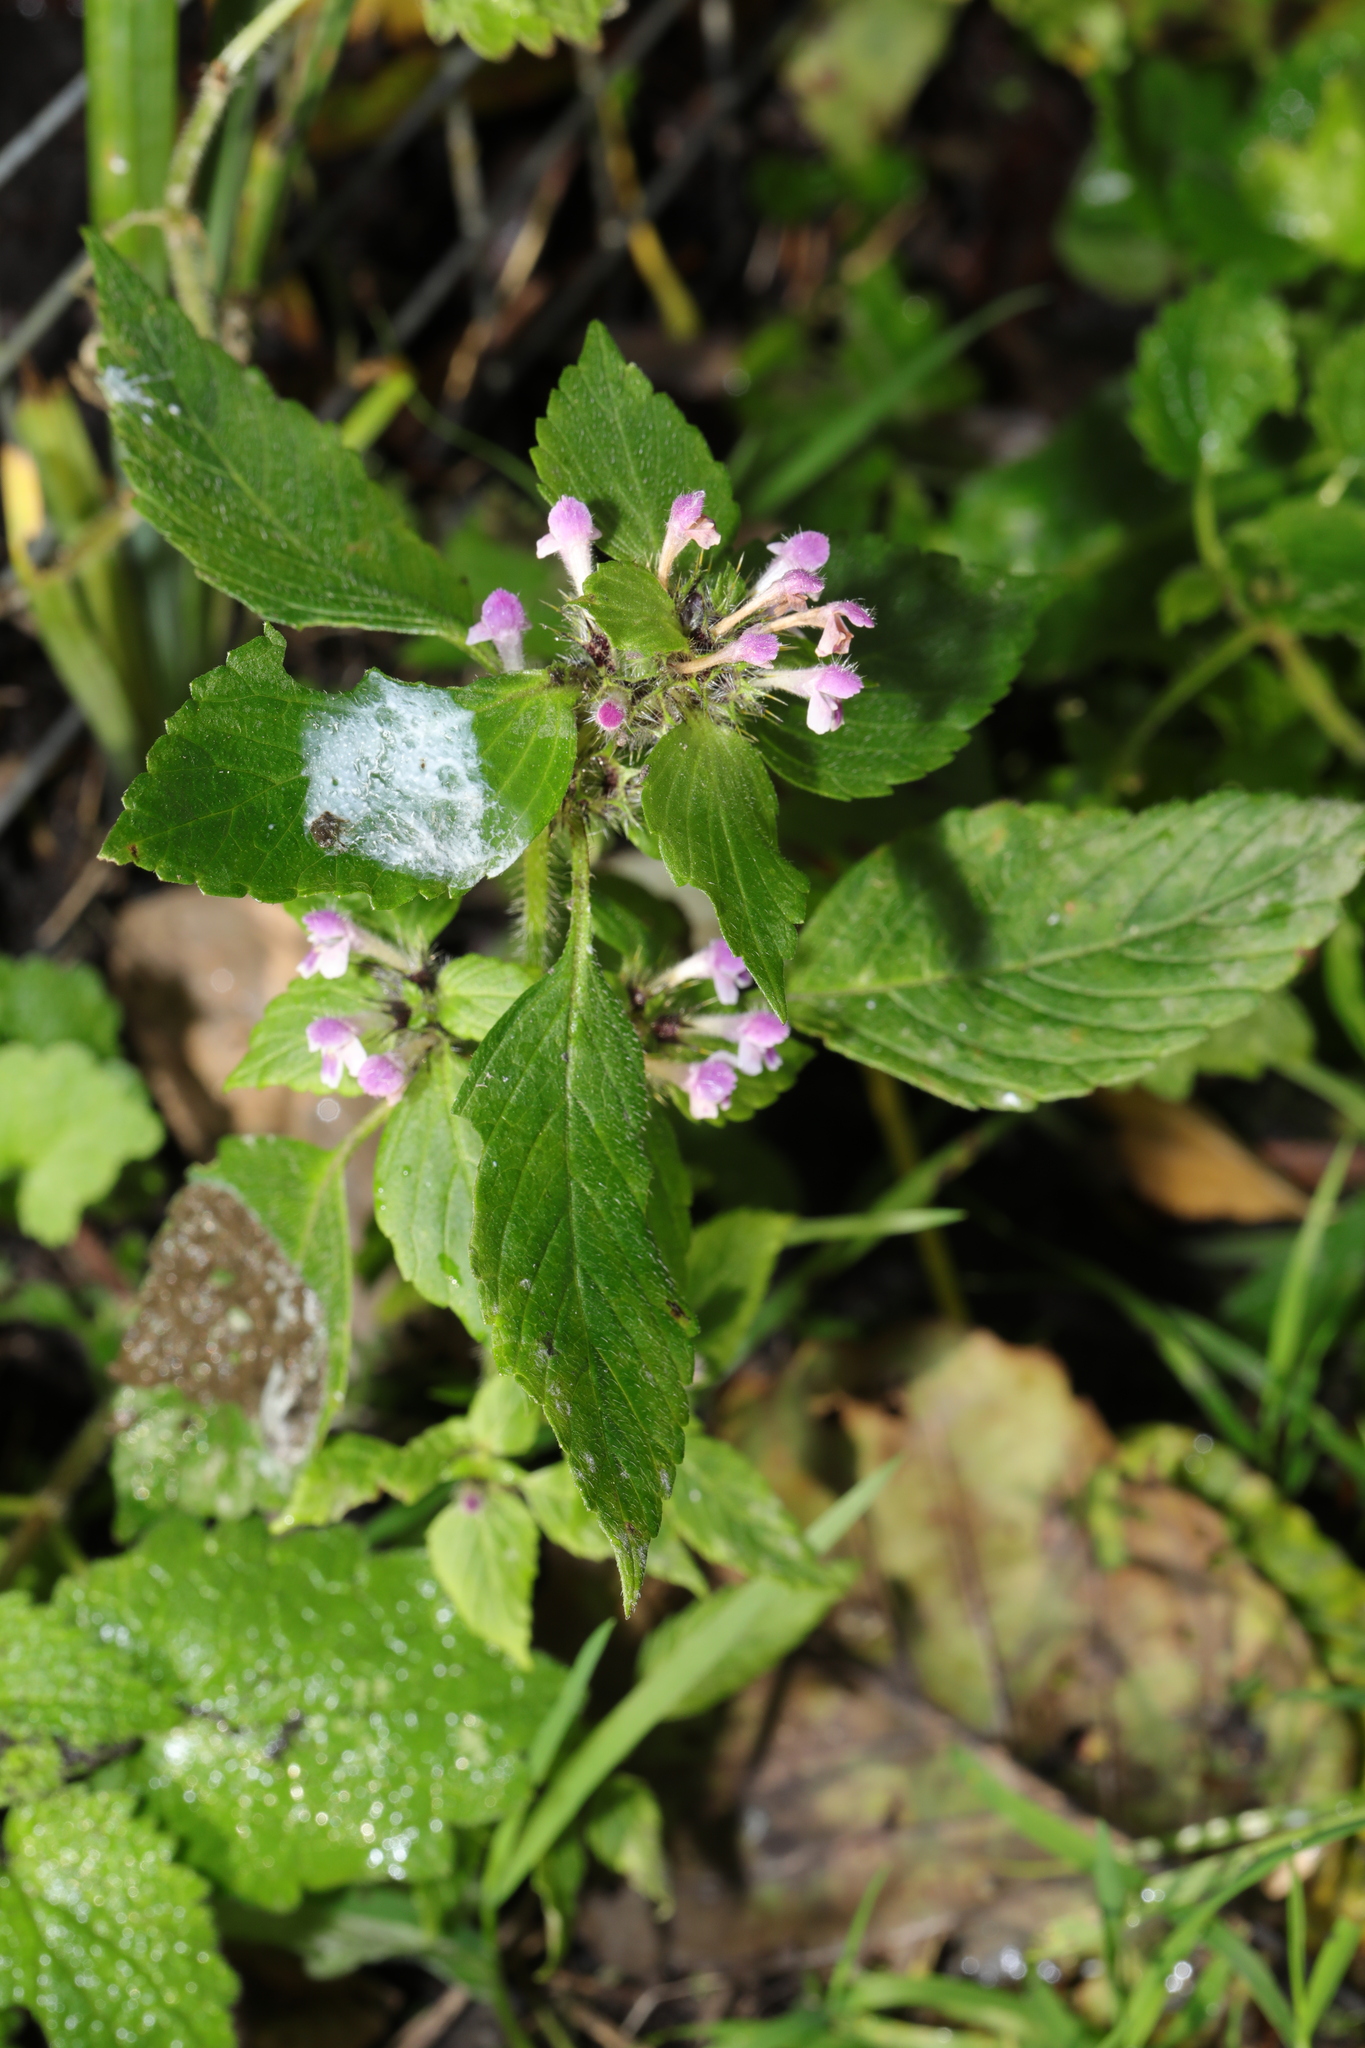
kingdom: Plantae
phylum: Tracheophyta
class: Magnoliopsida
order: Lamiales
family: Lamiaceae
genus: Galeopsis
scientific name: Galeopsis bifida
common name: Bifid hemp-nettle
